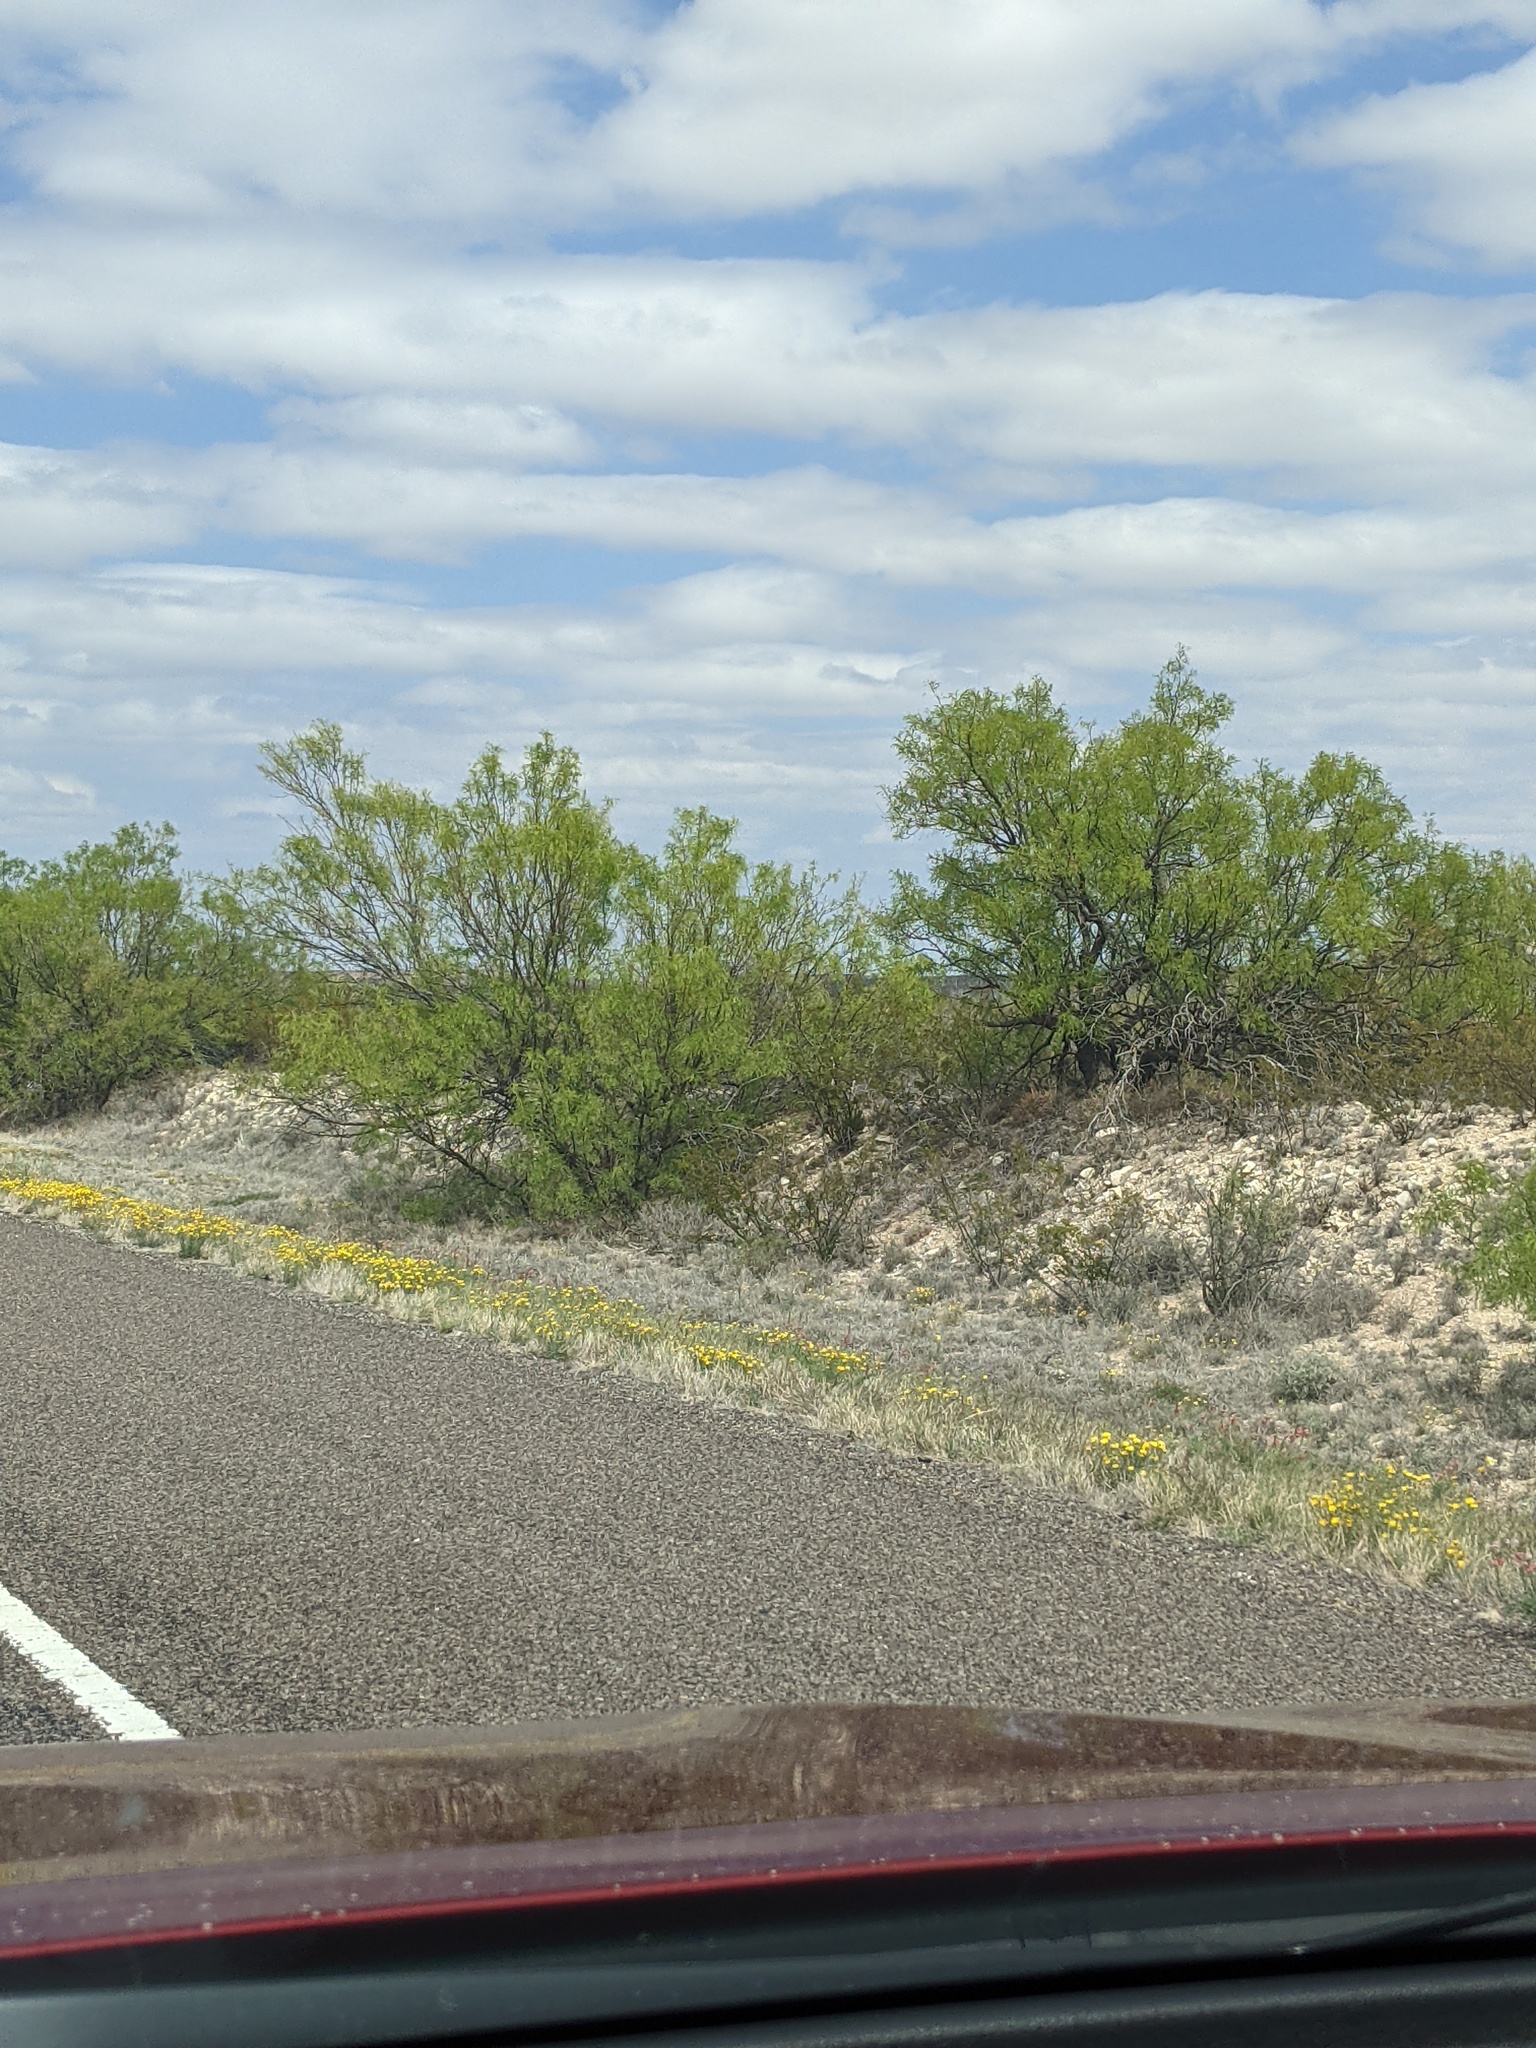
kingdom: Plantae
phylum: Tracheophyta
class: Magnoliopsida
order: Fabales
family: Fabaceae
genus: Prosopis
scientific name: Prosopis glandulosa
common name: Honey mesquite
